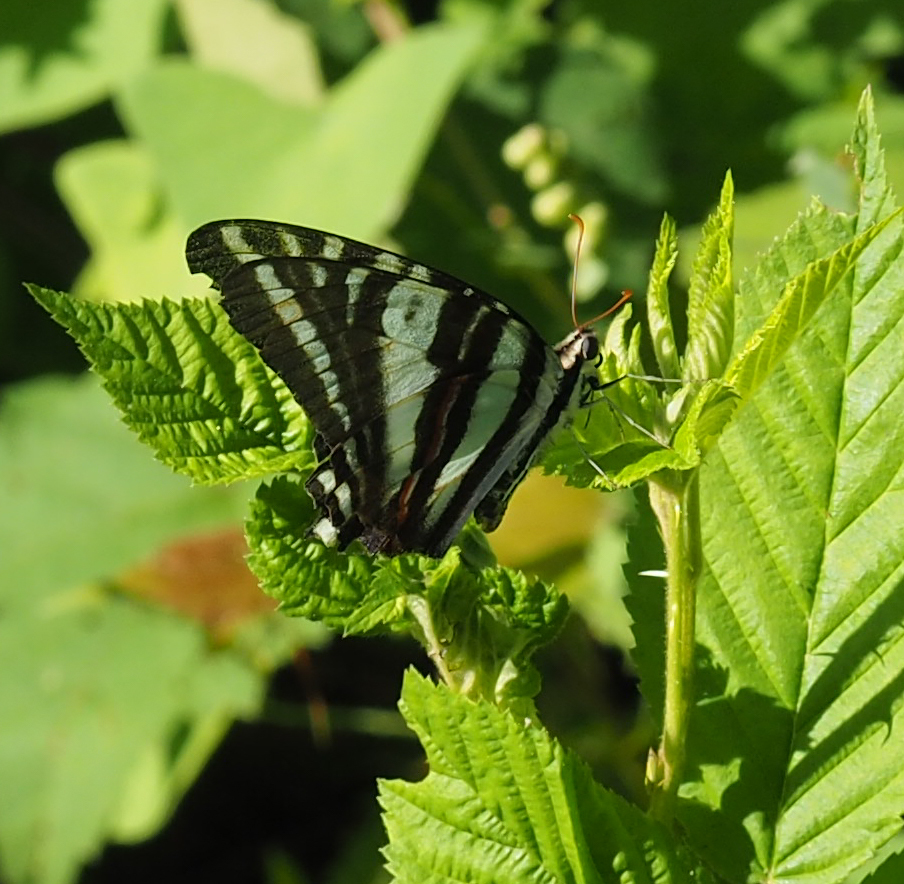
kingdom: Animalia
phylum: Arthropoda
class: Insecta
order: Lepidoptera
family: Papilionidae
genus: Protographium
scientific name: Protographium marcellus
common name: Zebra swallowtail
